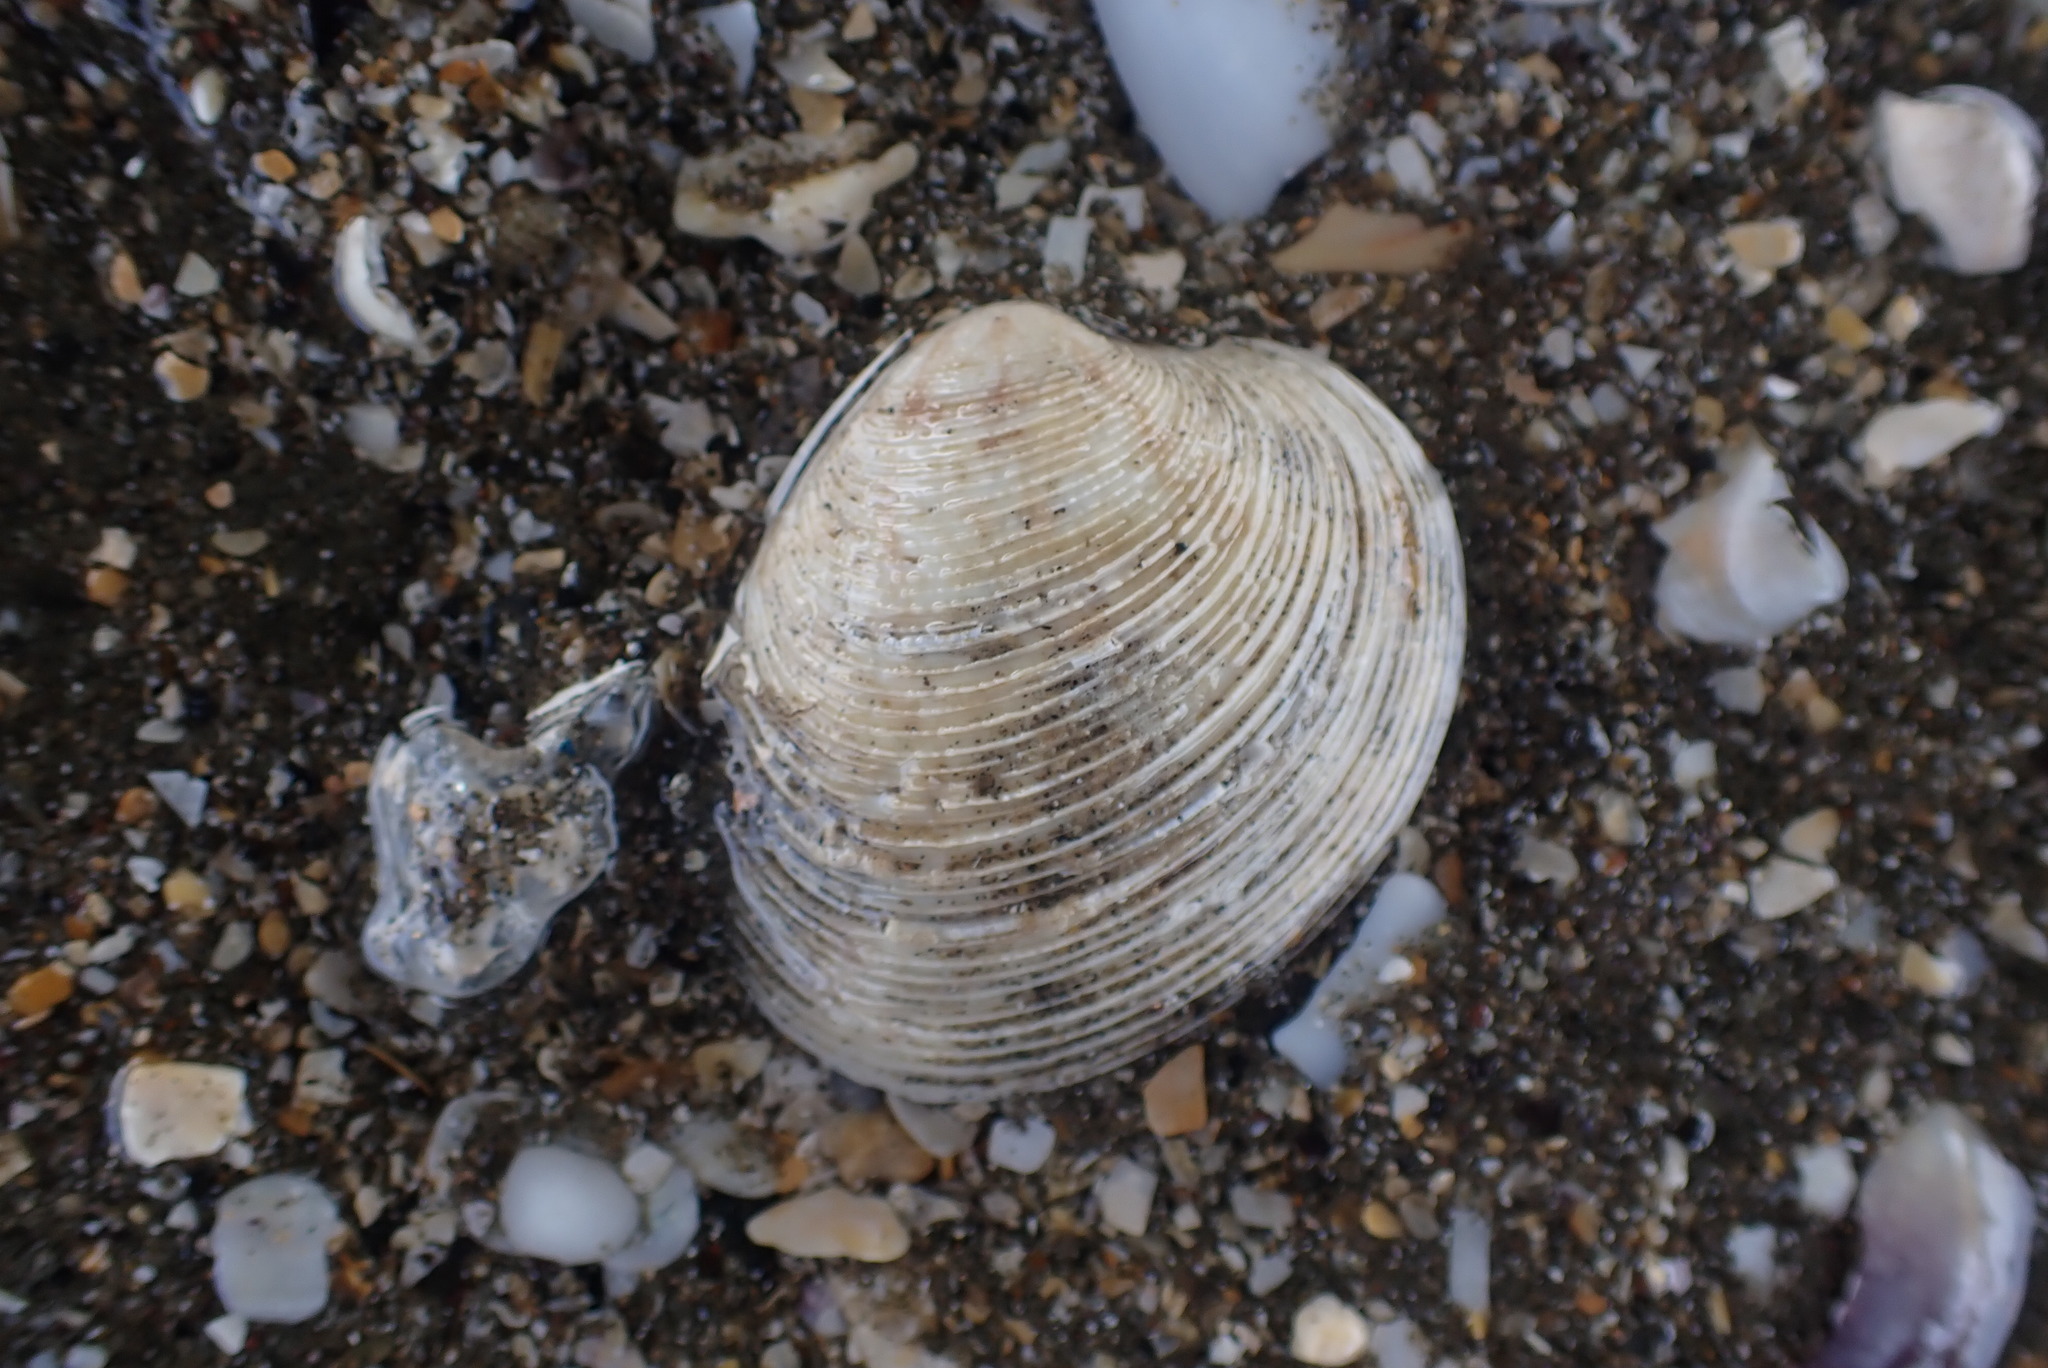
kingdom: Animalia
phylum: Mollusca
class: Bivalvia
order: Venerida
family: Veneridae
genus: Dosina
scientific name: Dosina mactracea
